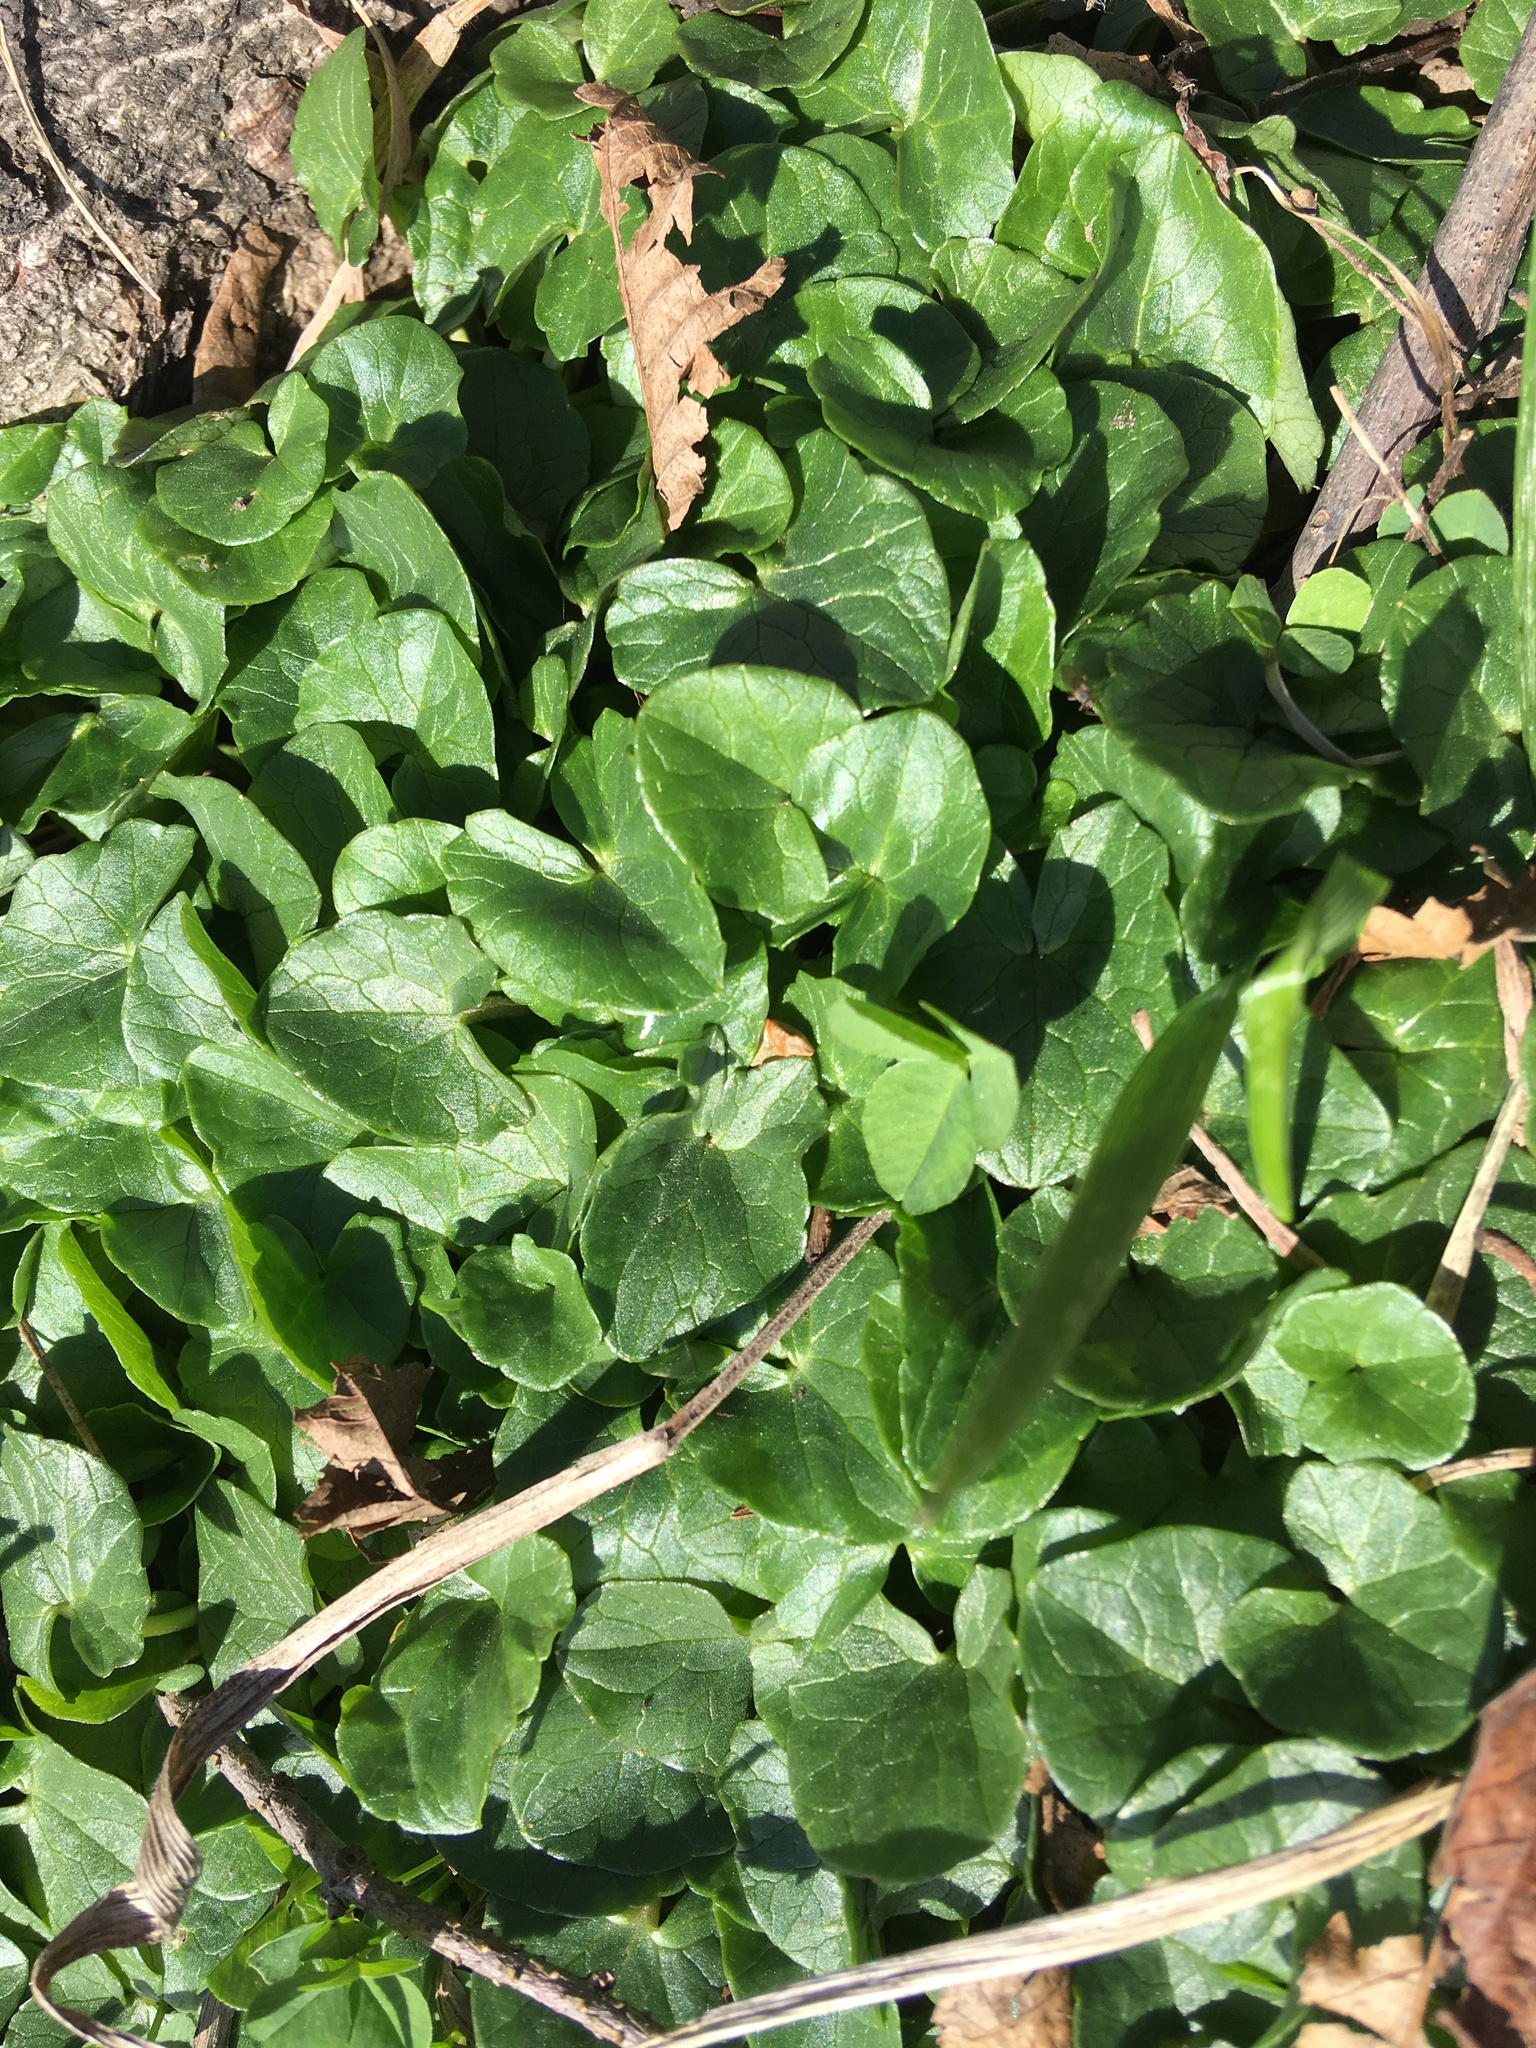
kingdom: Plantae
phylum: Tracheophyta
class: Magnoliopsida
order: Ranunculales
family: Ranunculaceae
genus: Ficaria
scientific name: Ficaria verna
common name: Lesser celandine
